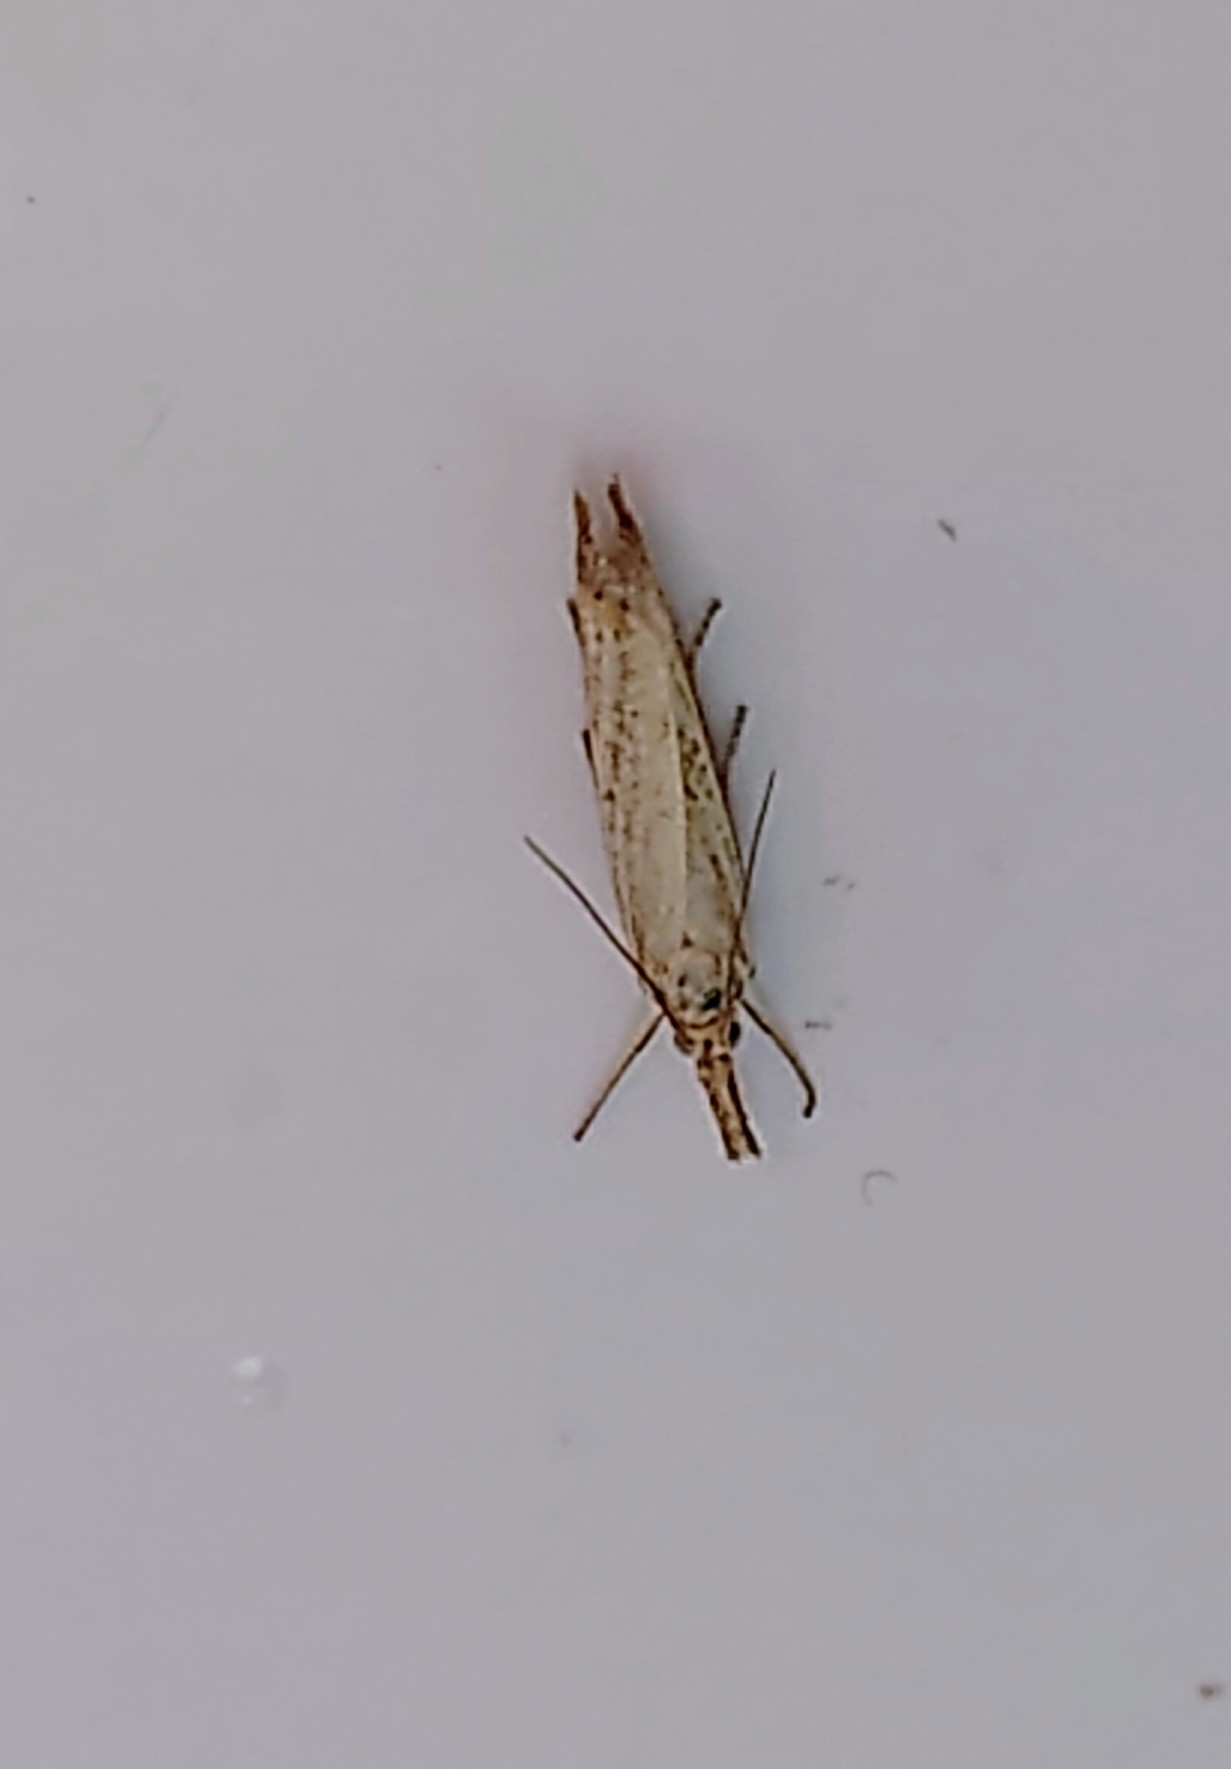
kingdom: Animalia
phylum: Arthropoda
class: Insecta
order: Lepidoptera
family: Crambidae
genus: Agriphila
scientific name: Agriphila straminella
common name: Straw grass-veneer
